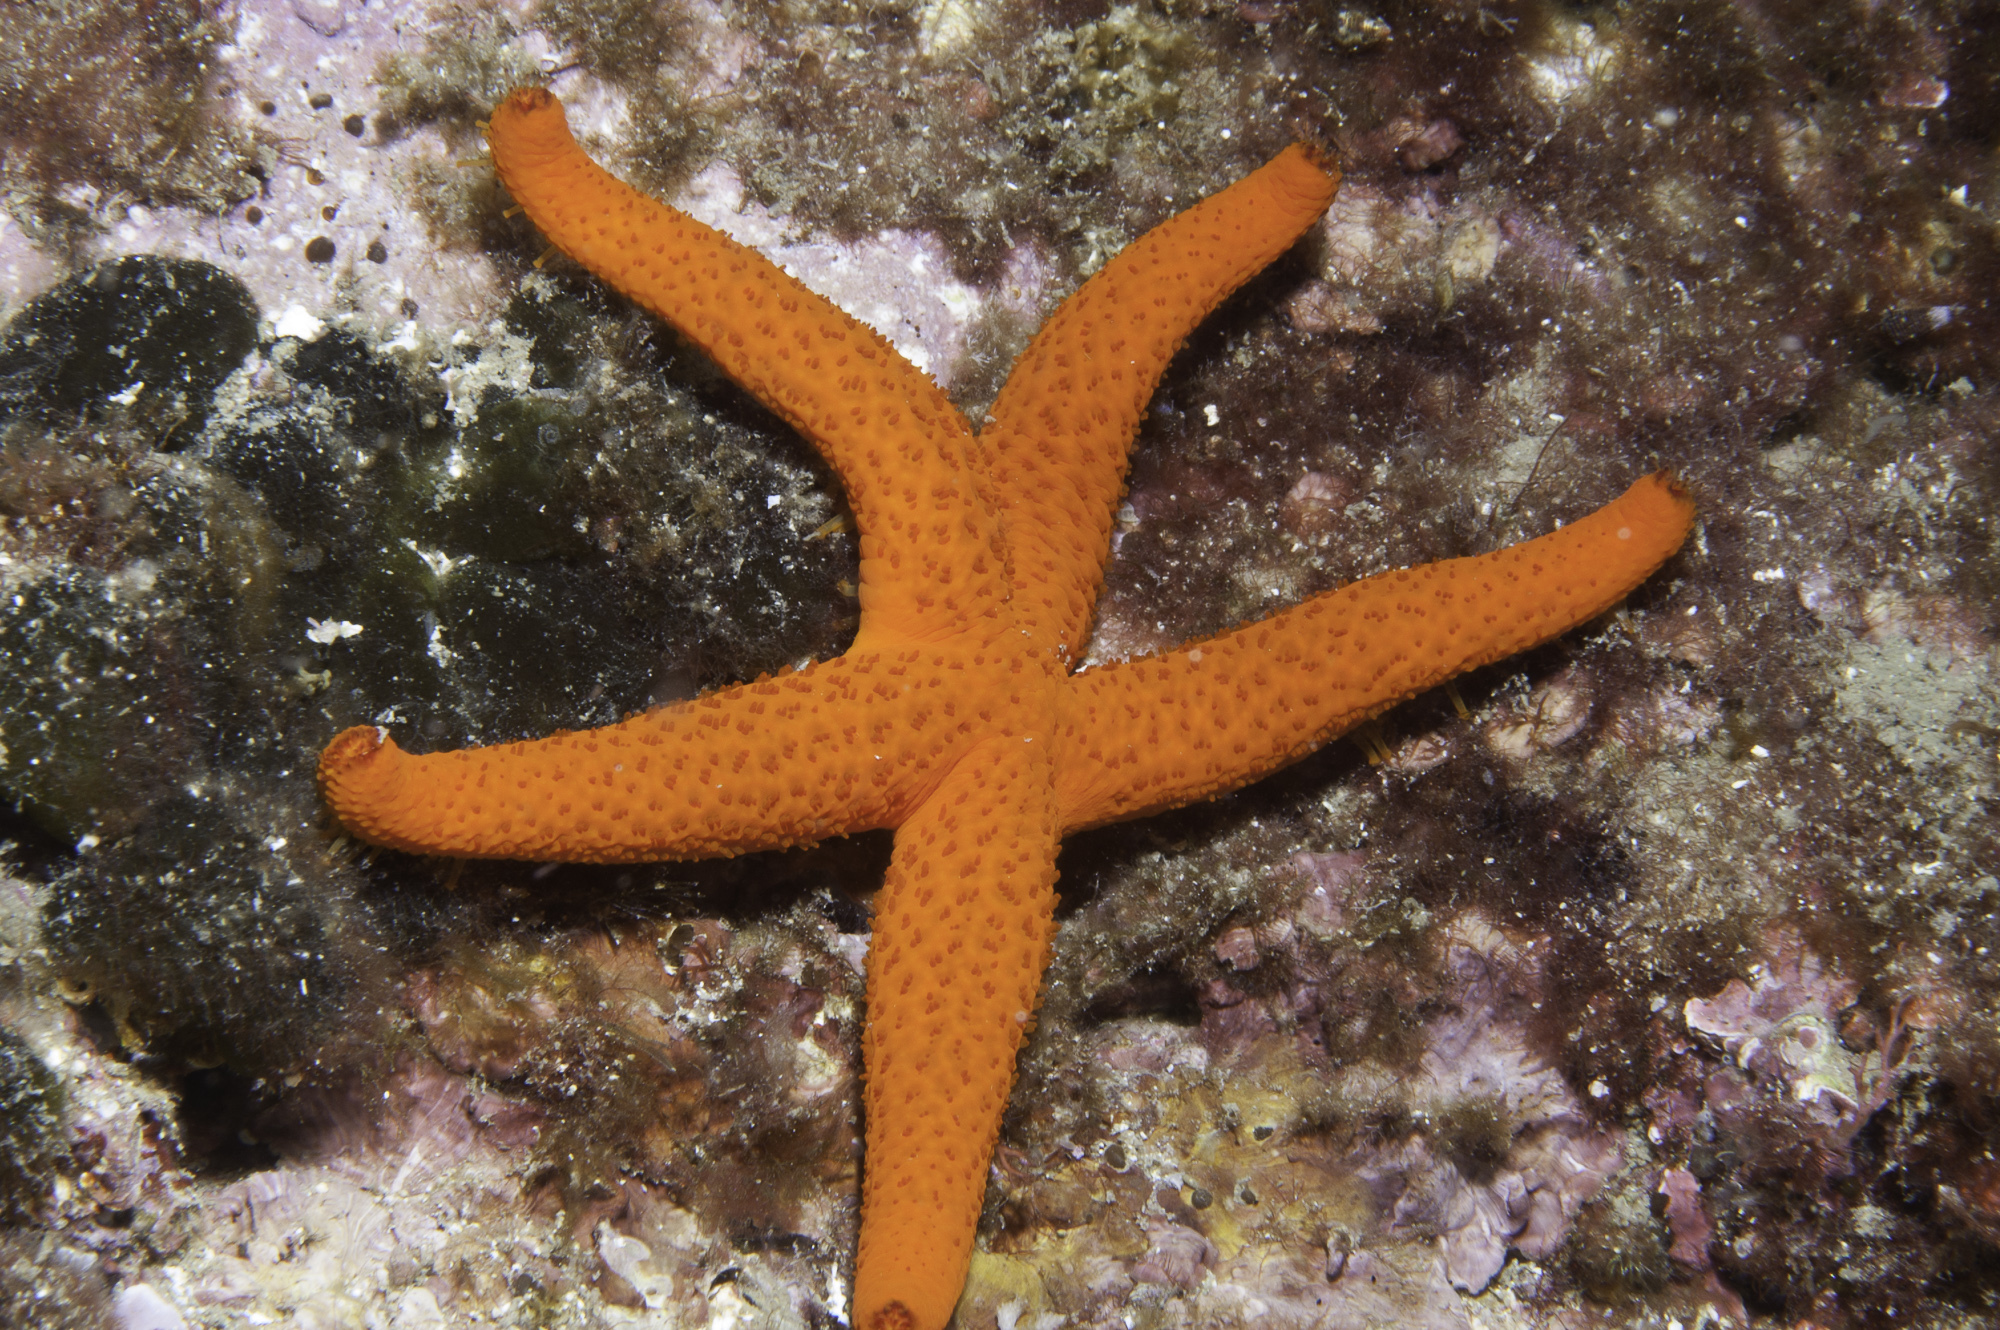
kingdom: Animalia
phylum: Echinodermata
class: Asteroidea
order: Spinulosida
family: Echinasteridae
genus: Echinaster
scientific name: Echinaster sepositus
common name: Red starfish
